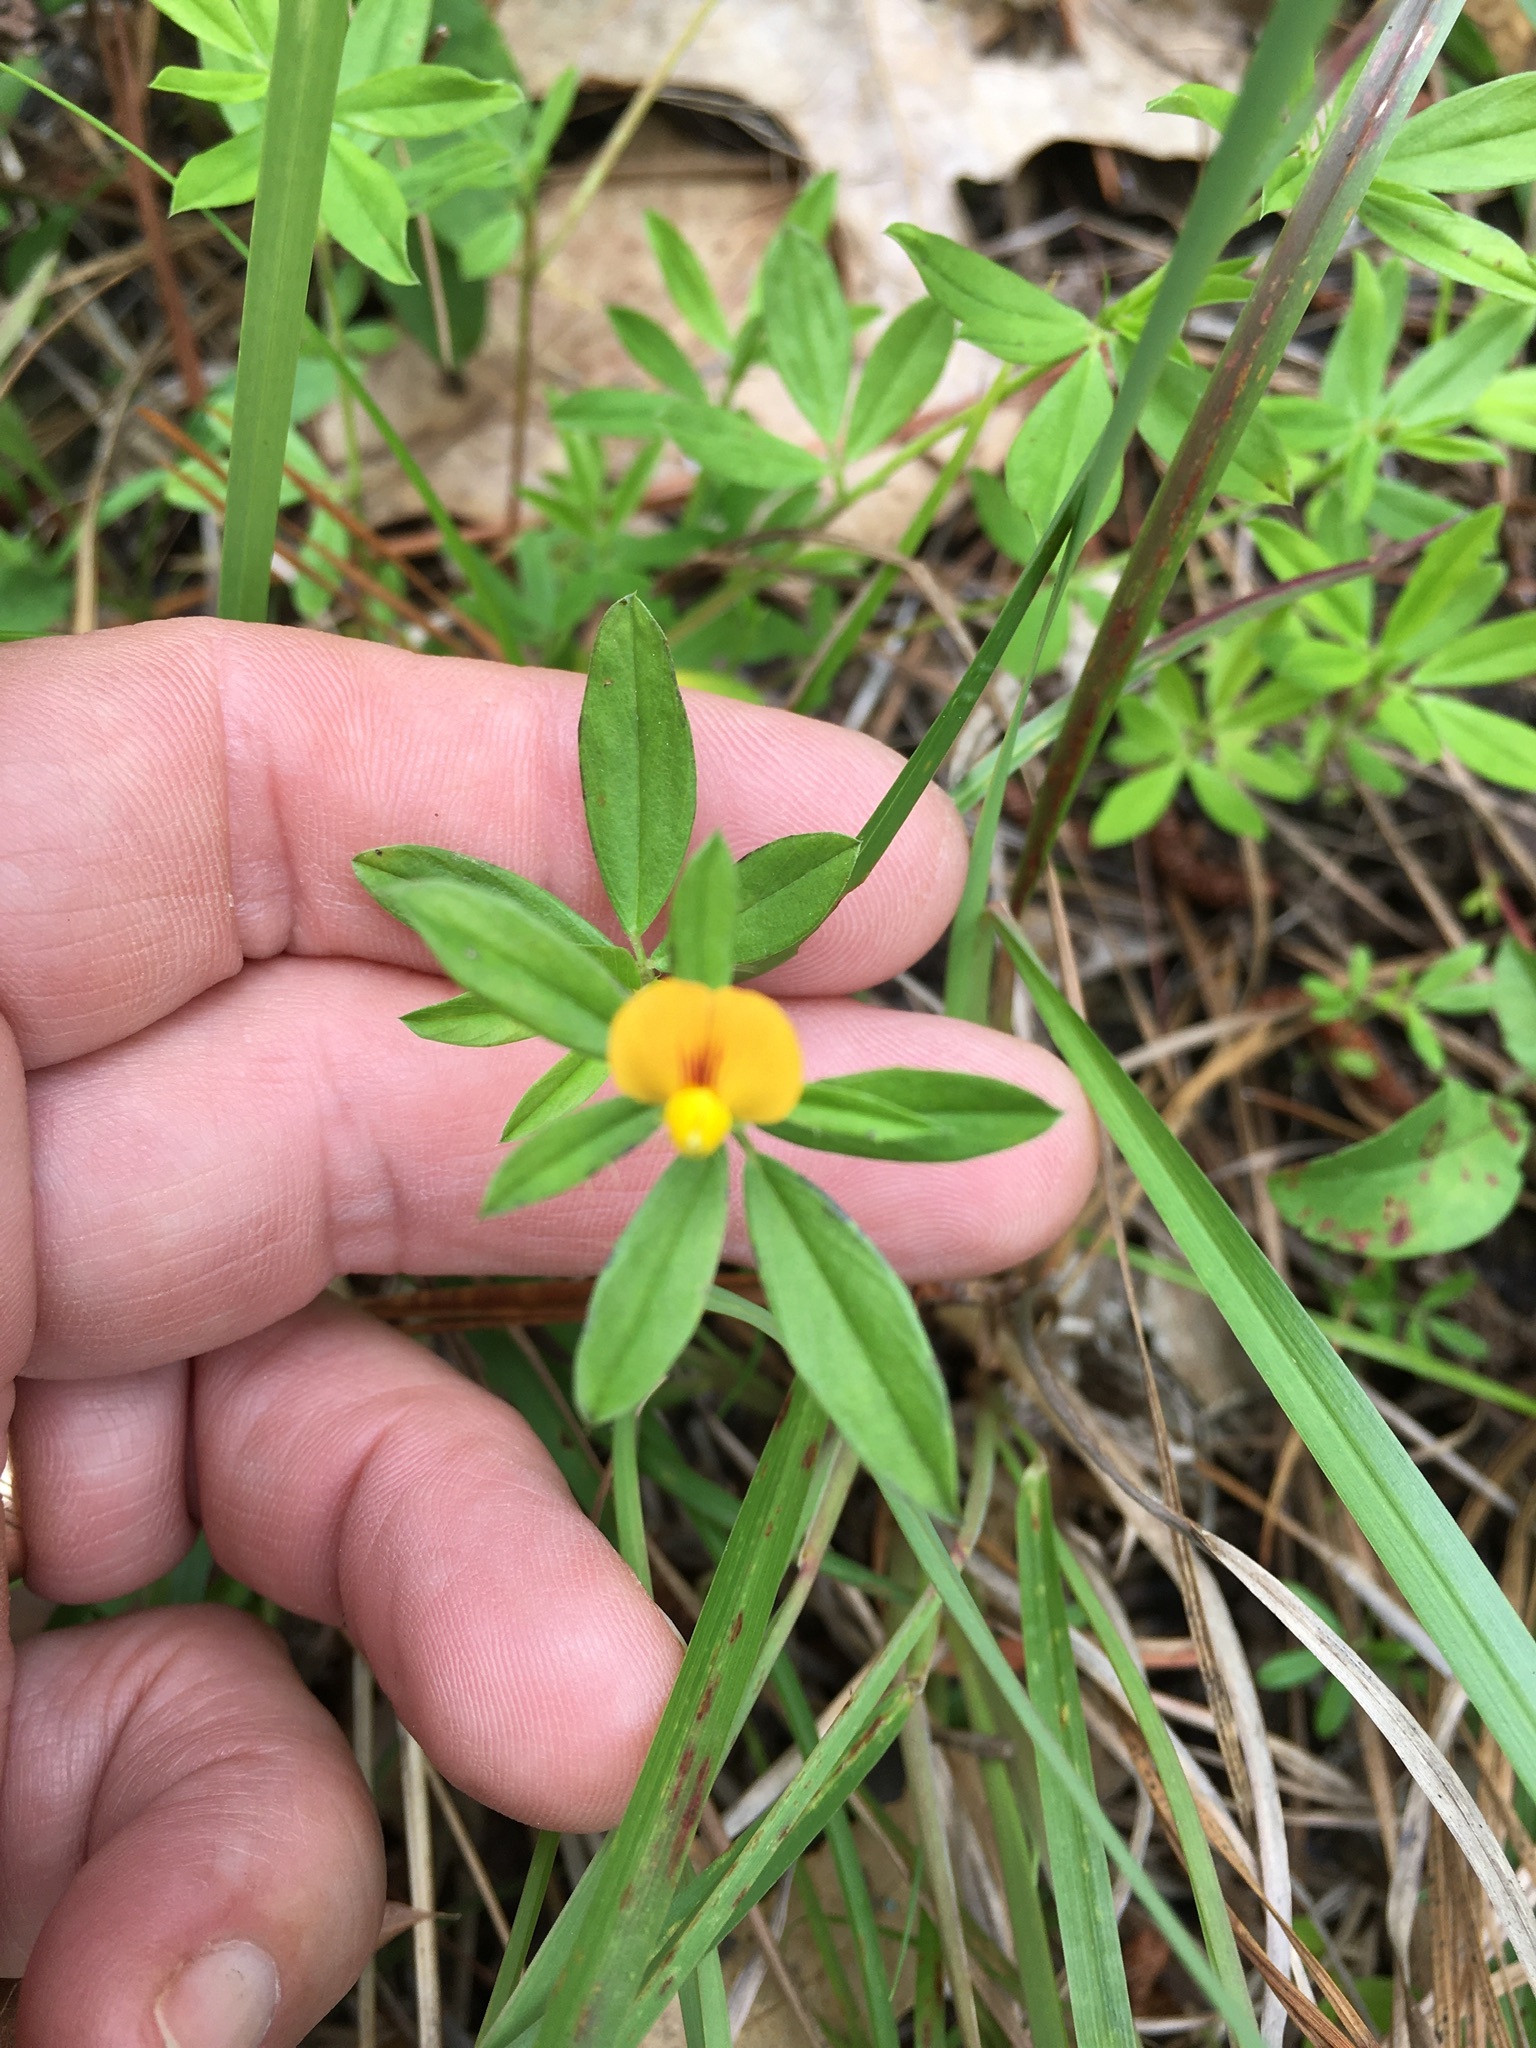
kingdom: Plantae
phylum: Tracheophyta
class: Magnoliopsida
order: Fabales
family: Fabaceae
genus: Stylosanthes
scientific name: Stylosanthes biflora
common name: Two-flower pencil-flower
